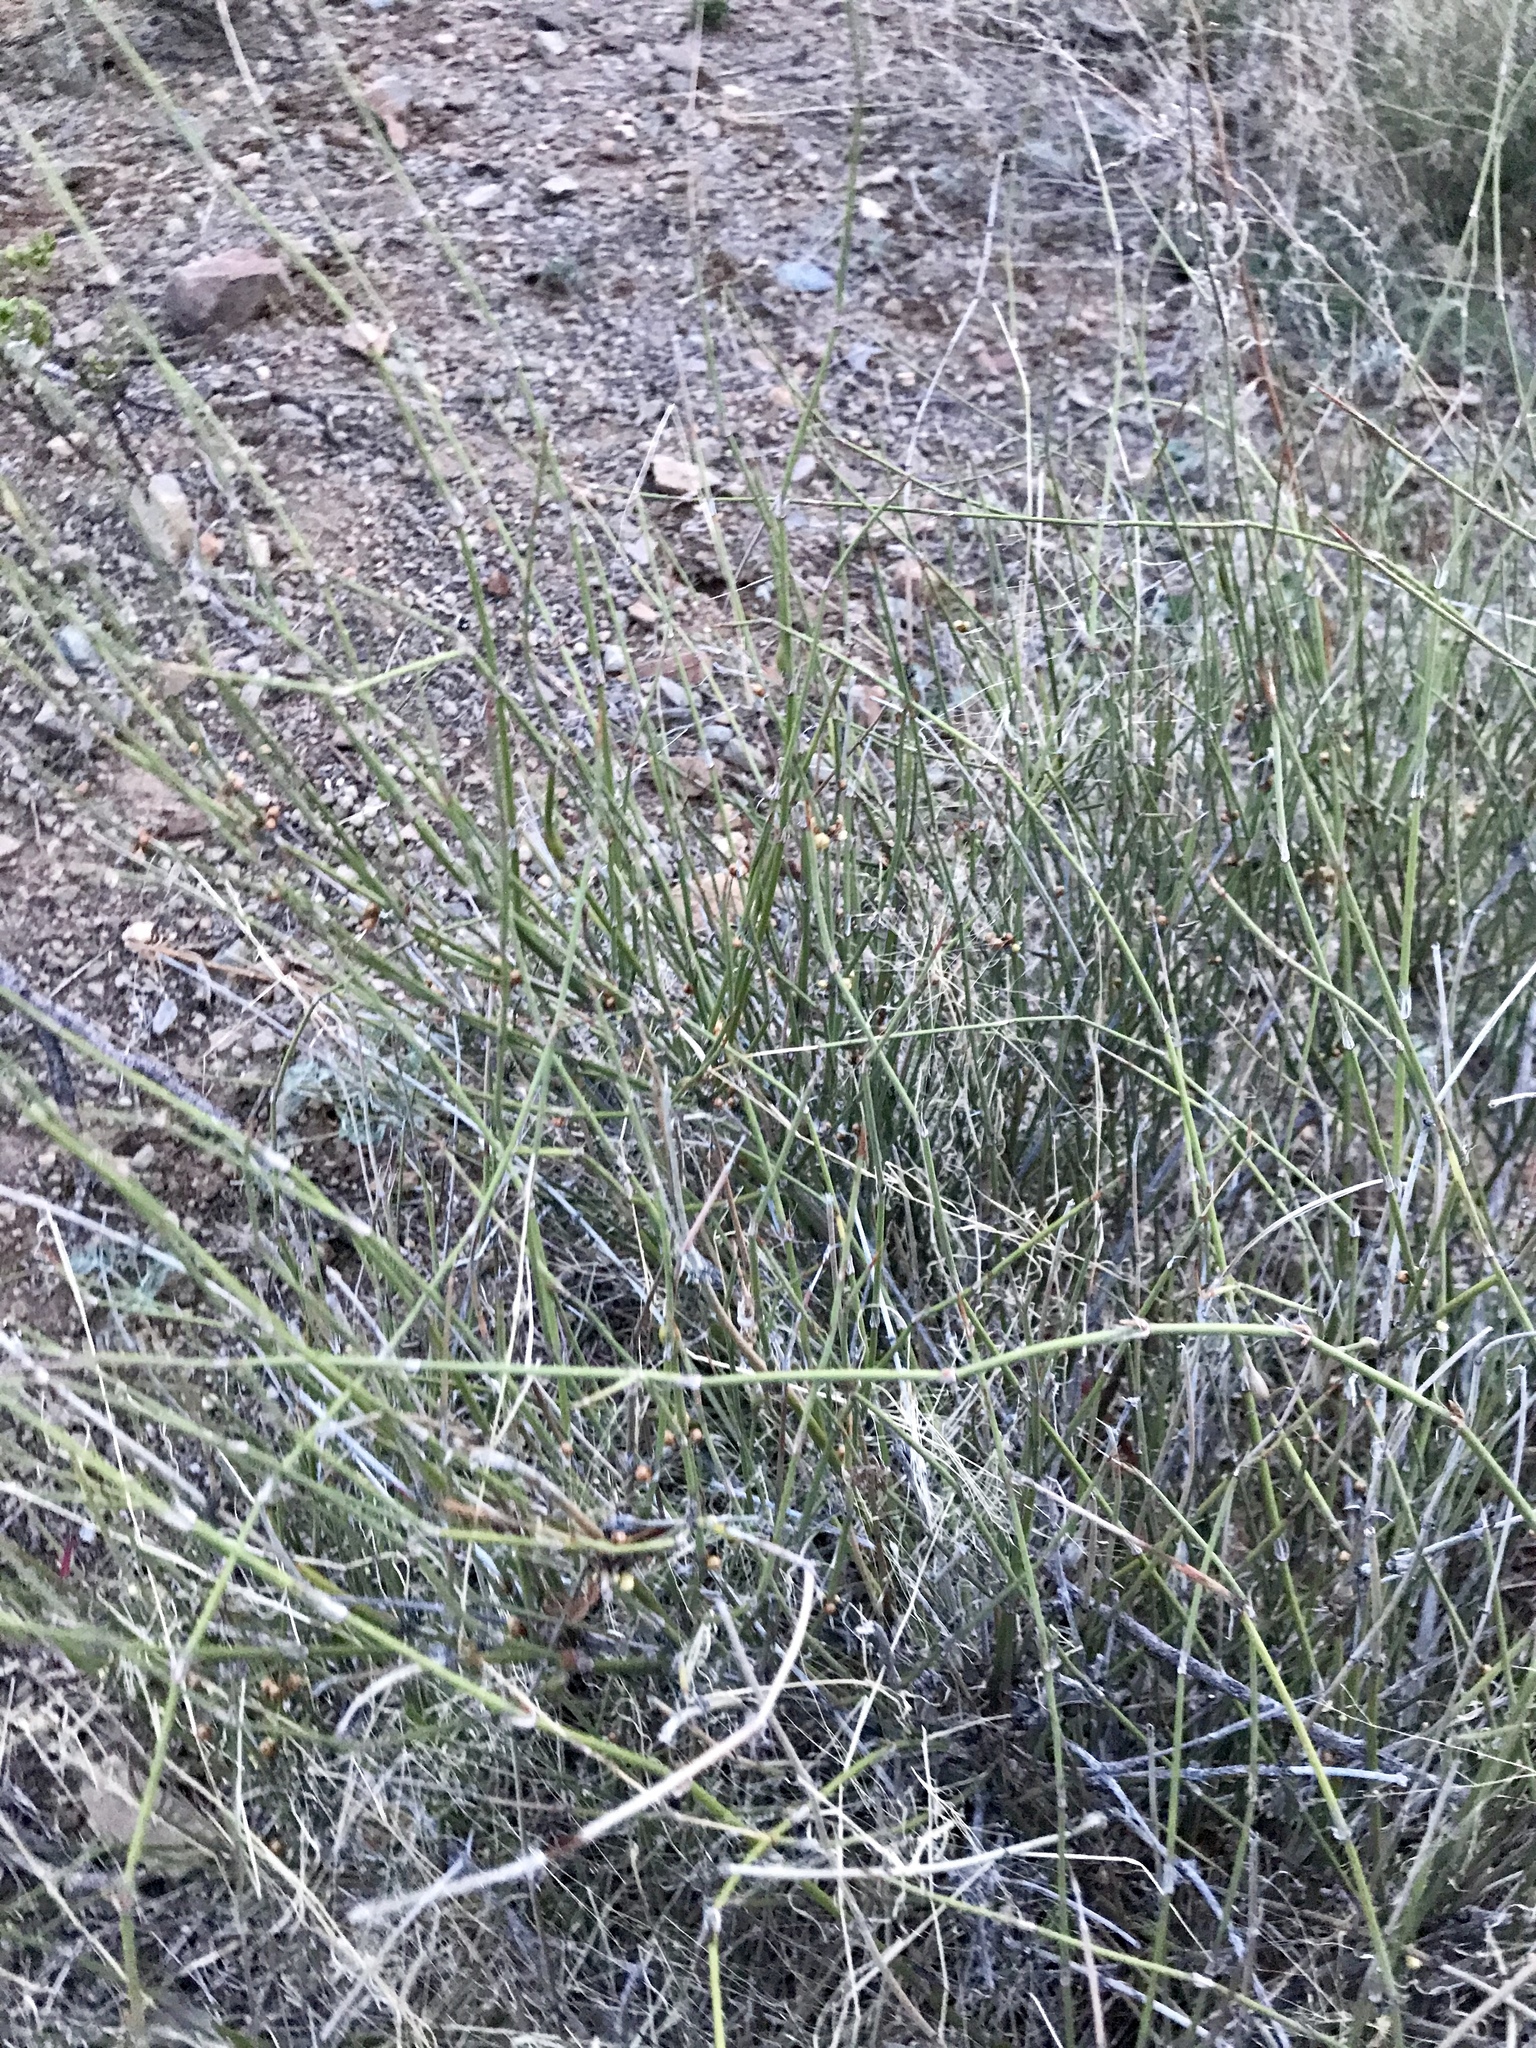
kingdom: Plantae
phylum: Tracheophyta
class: Gnetopsida
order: Ephedrales
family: Ephedraceae
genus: Ephedra
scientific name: Ephedra trifurca
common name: Mexican-tea
